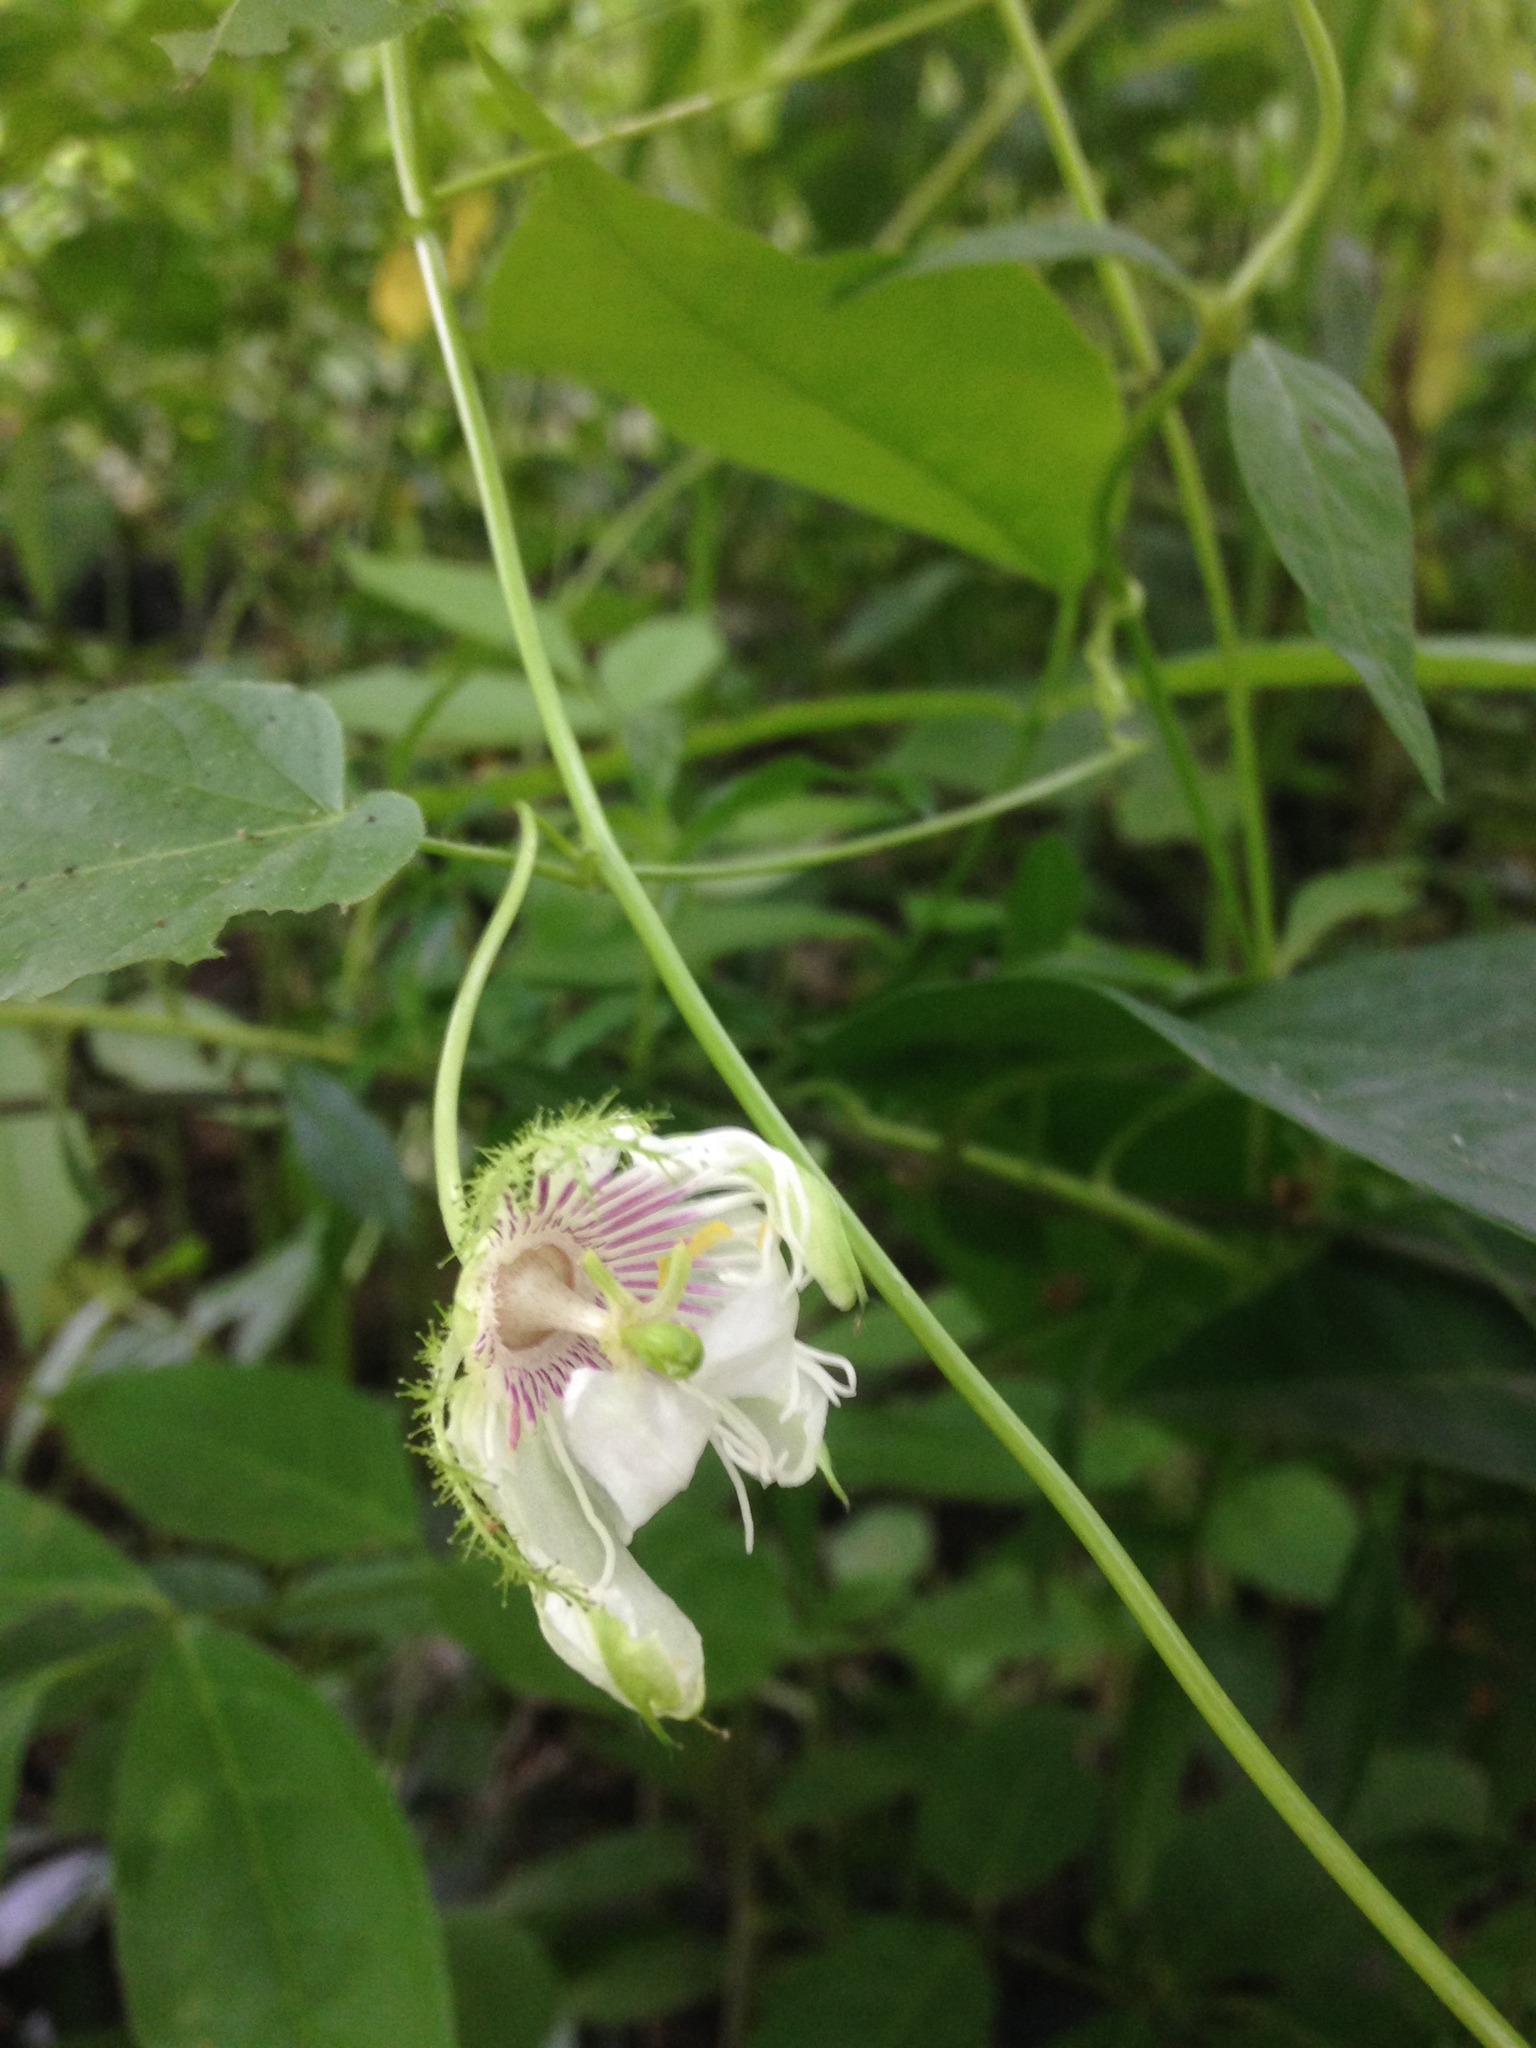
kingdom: Plantae
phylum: Tracheophyta
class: Magnoliopsida
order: Malpighiales
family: Passifloraceae
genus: Passiflora
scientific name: Passiflora foetida
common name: Fetid passionflower
